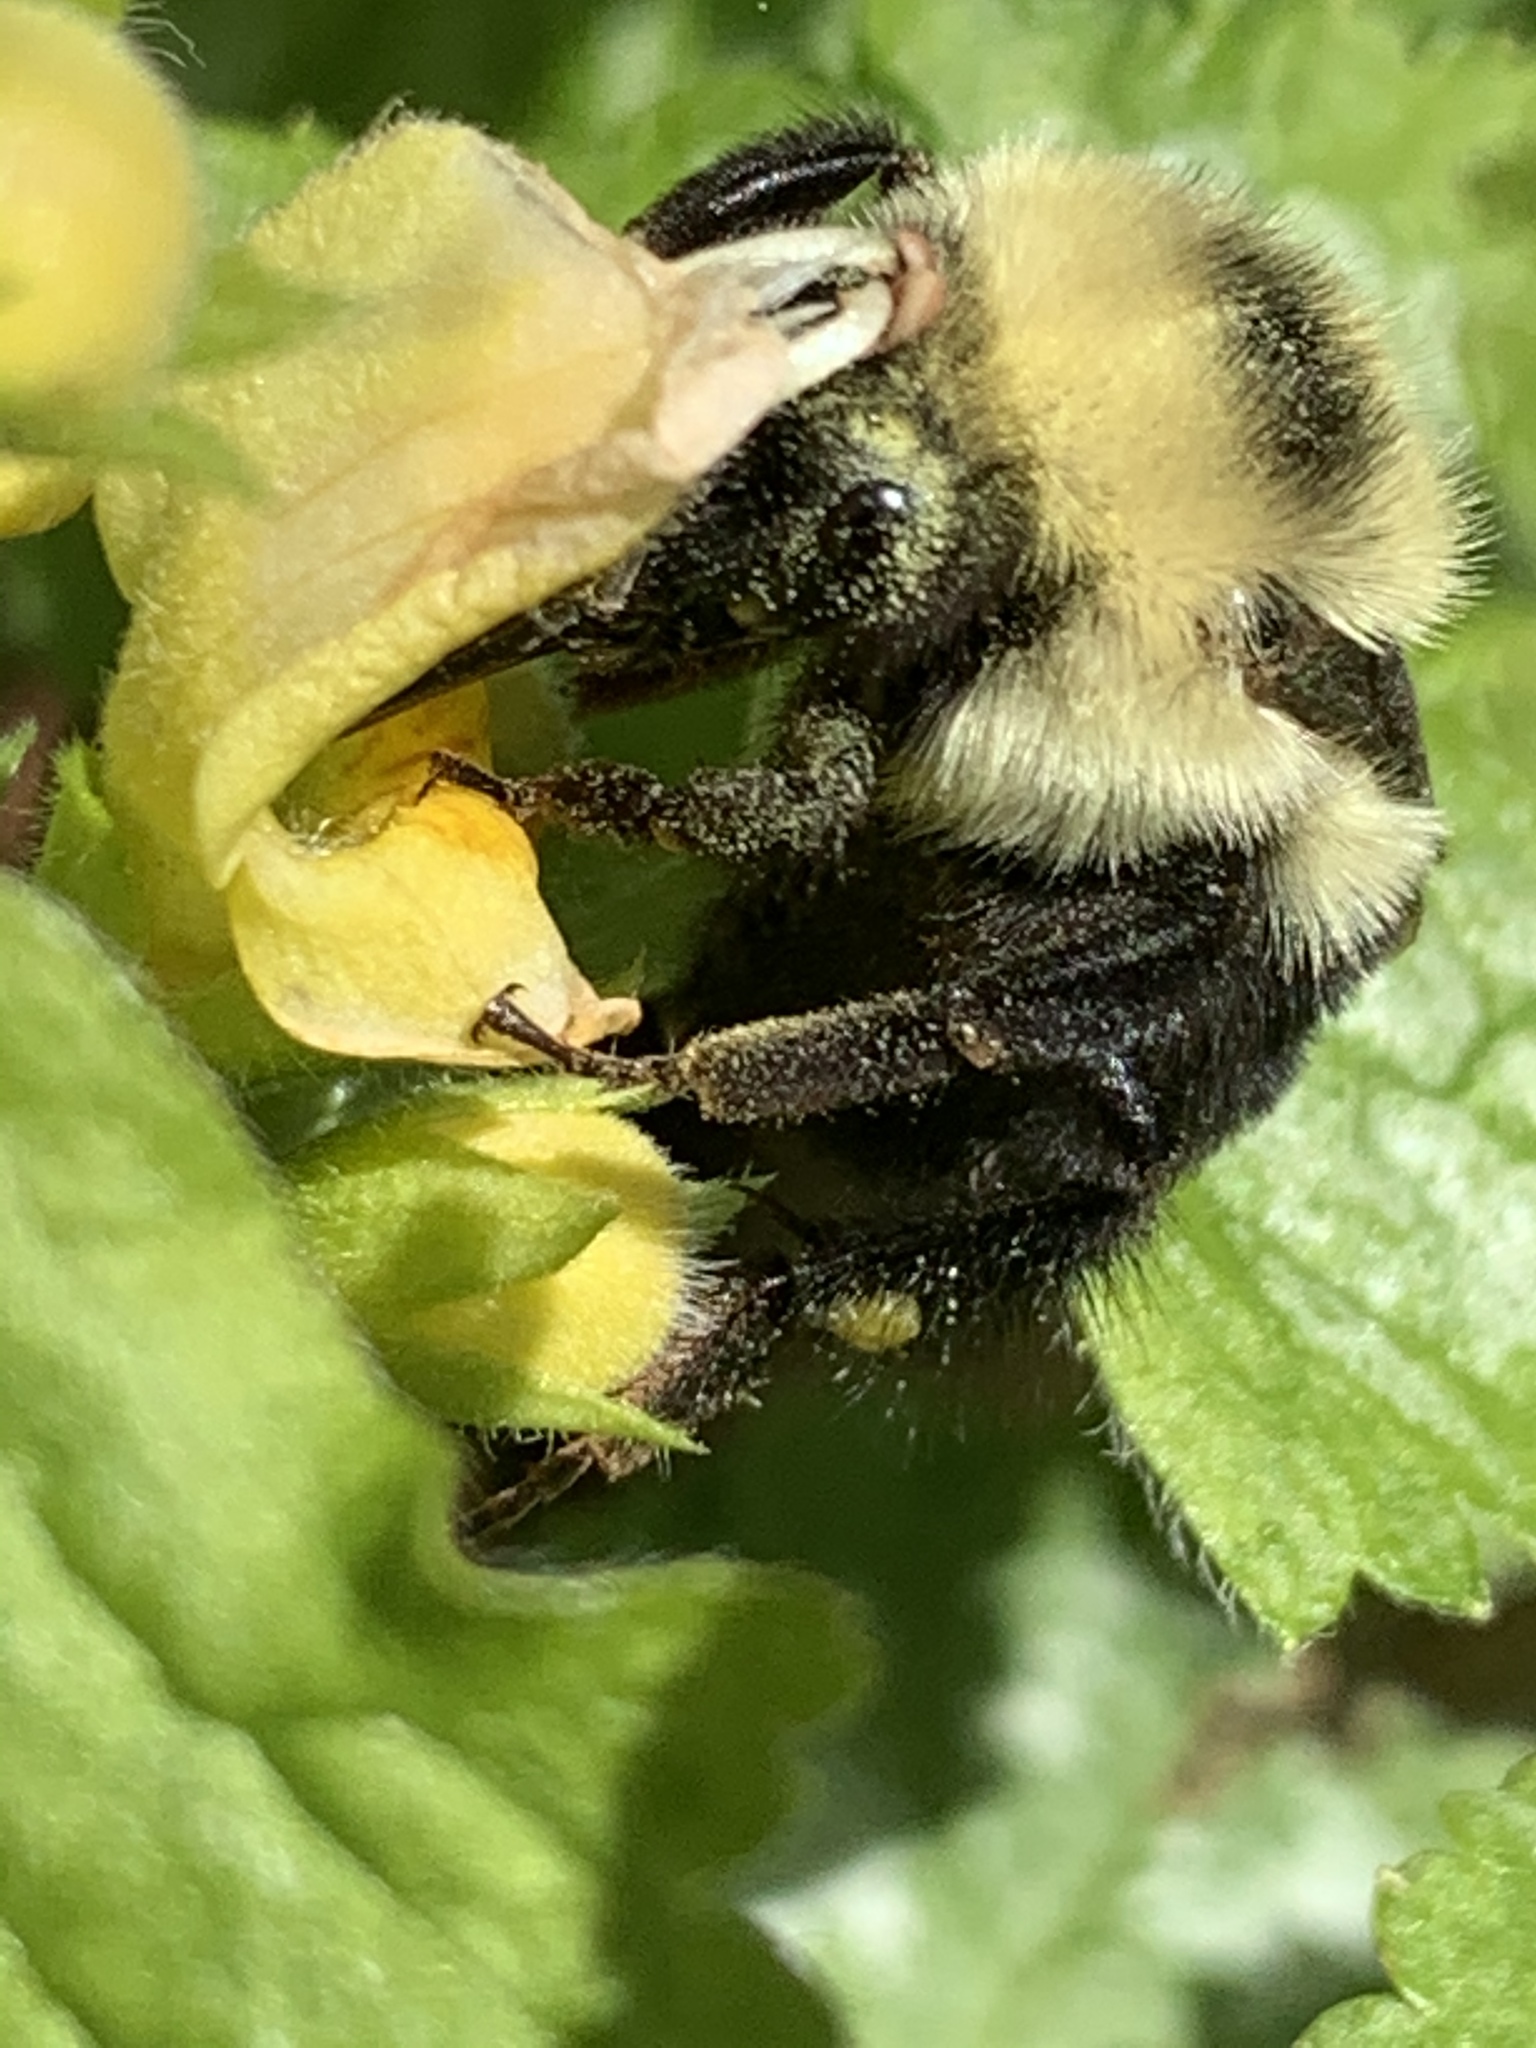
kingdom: Animalia
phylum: Arthropoda
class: Insecta
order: Hymenoptera
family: Apidae
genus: Bombus
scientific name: Bombus bimaculatus
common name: Two-spotted bumble bee
